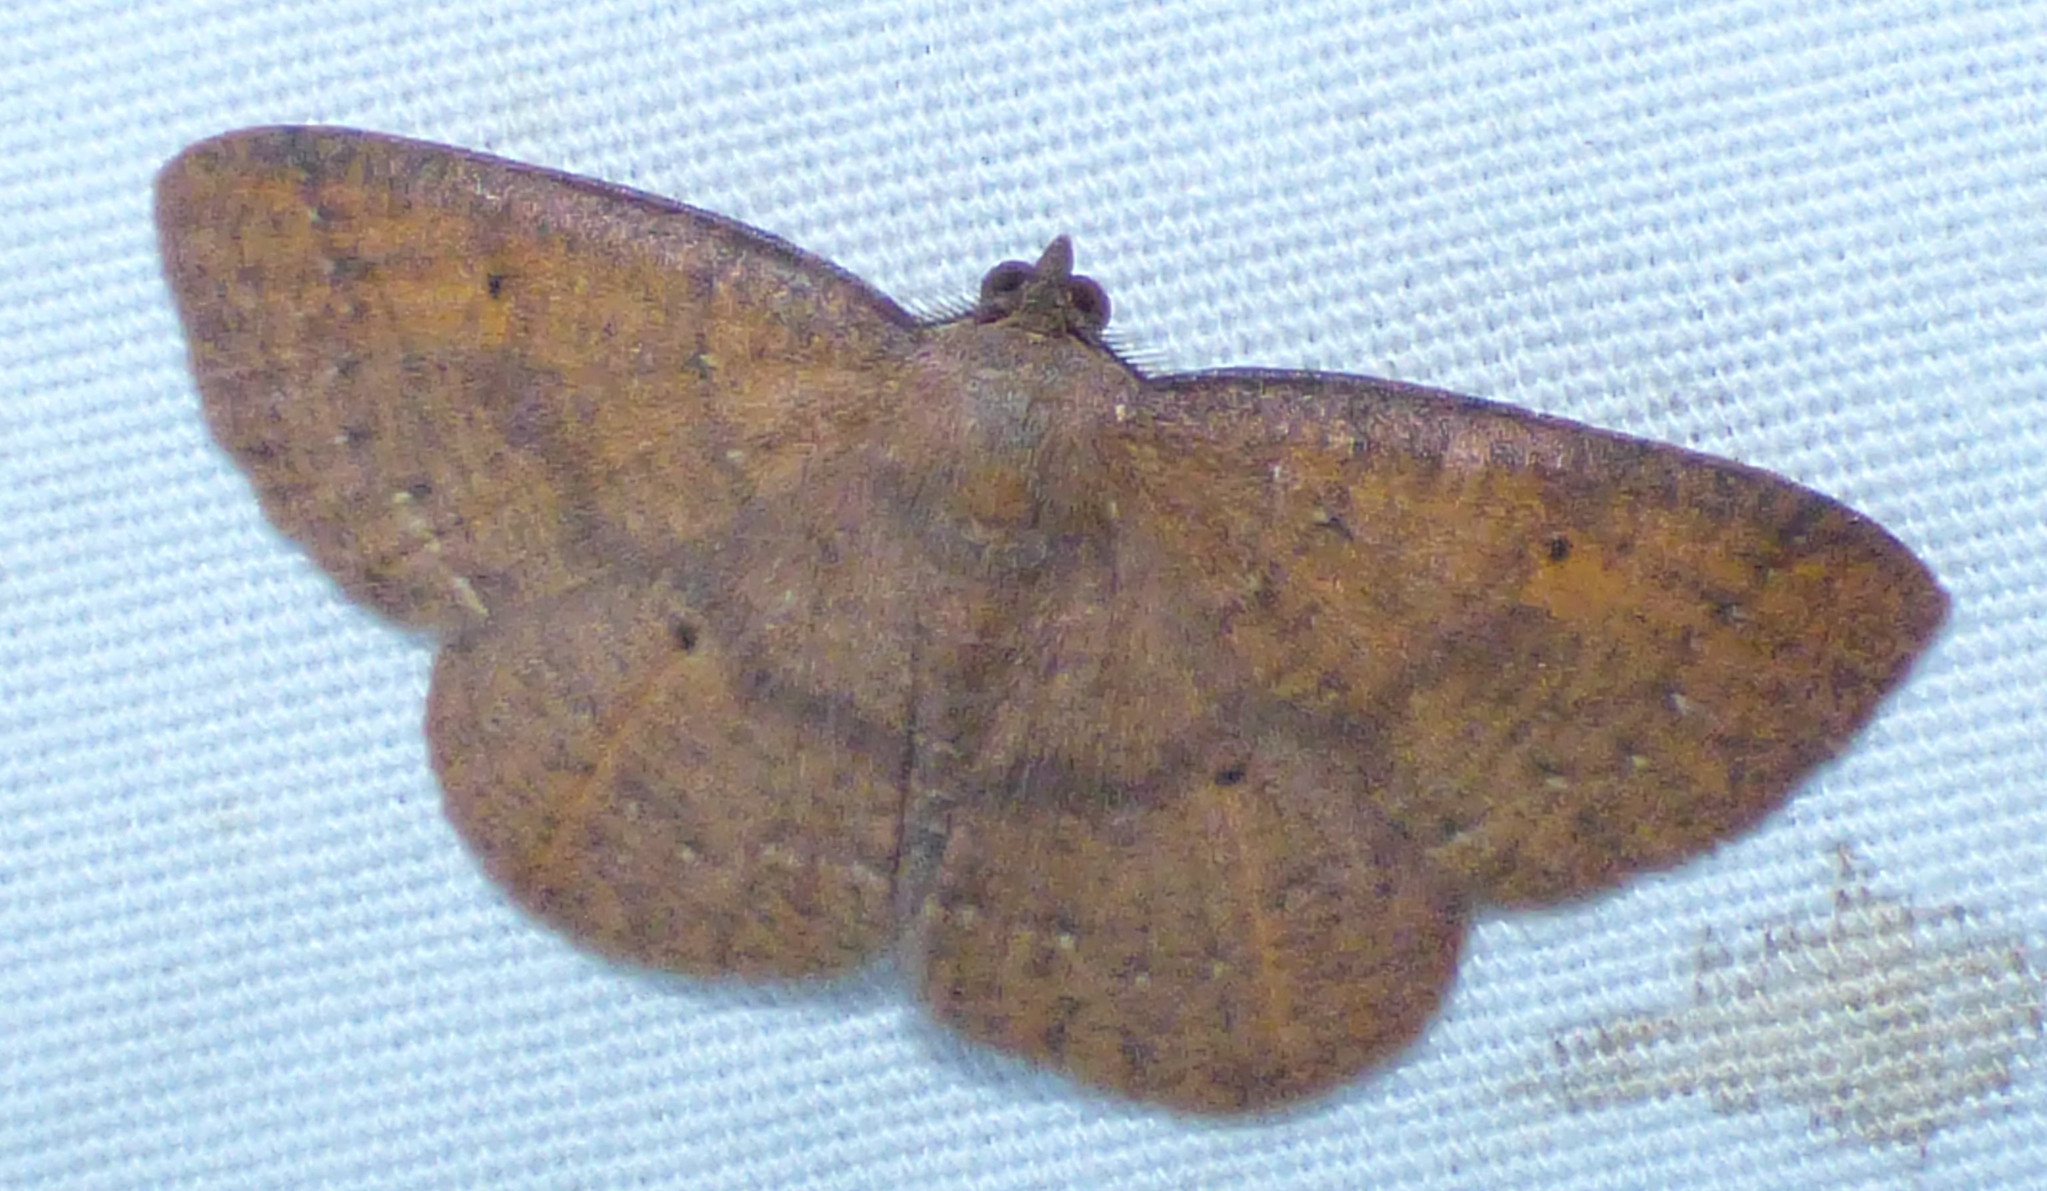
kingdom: Animalia
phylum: Arthropoda
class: Insecta
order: Lepidoptera
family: Geometridae
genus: Ilexia
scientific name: Ilexia intractata
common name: Black-dotted ruddy moth
